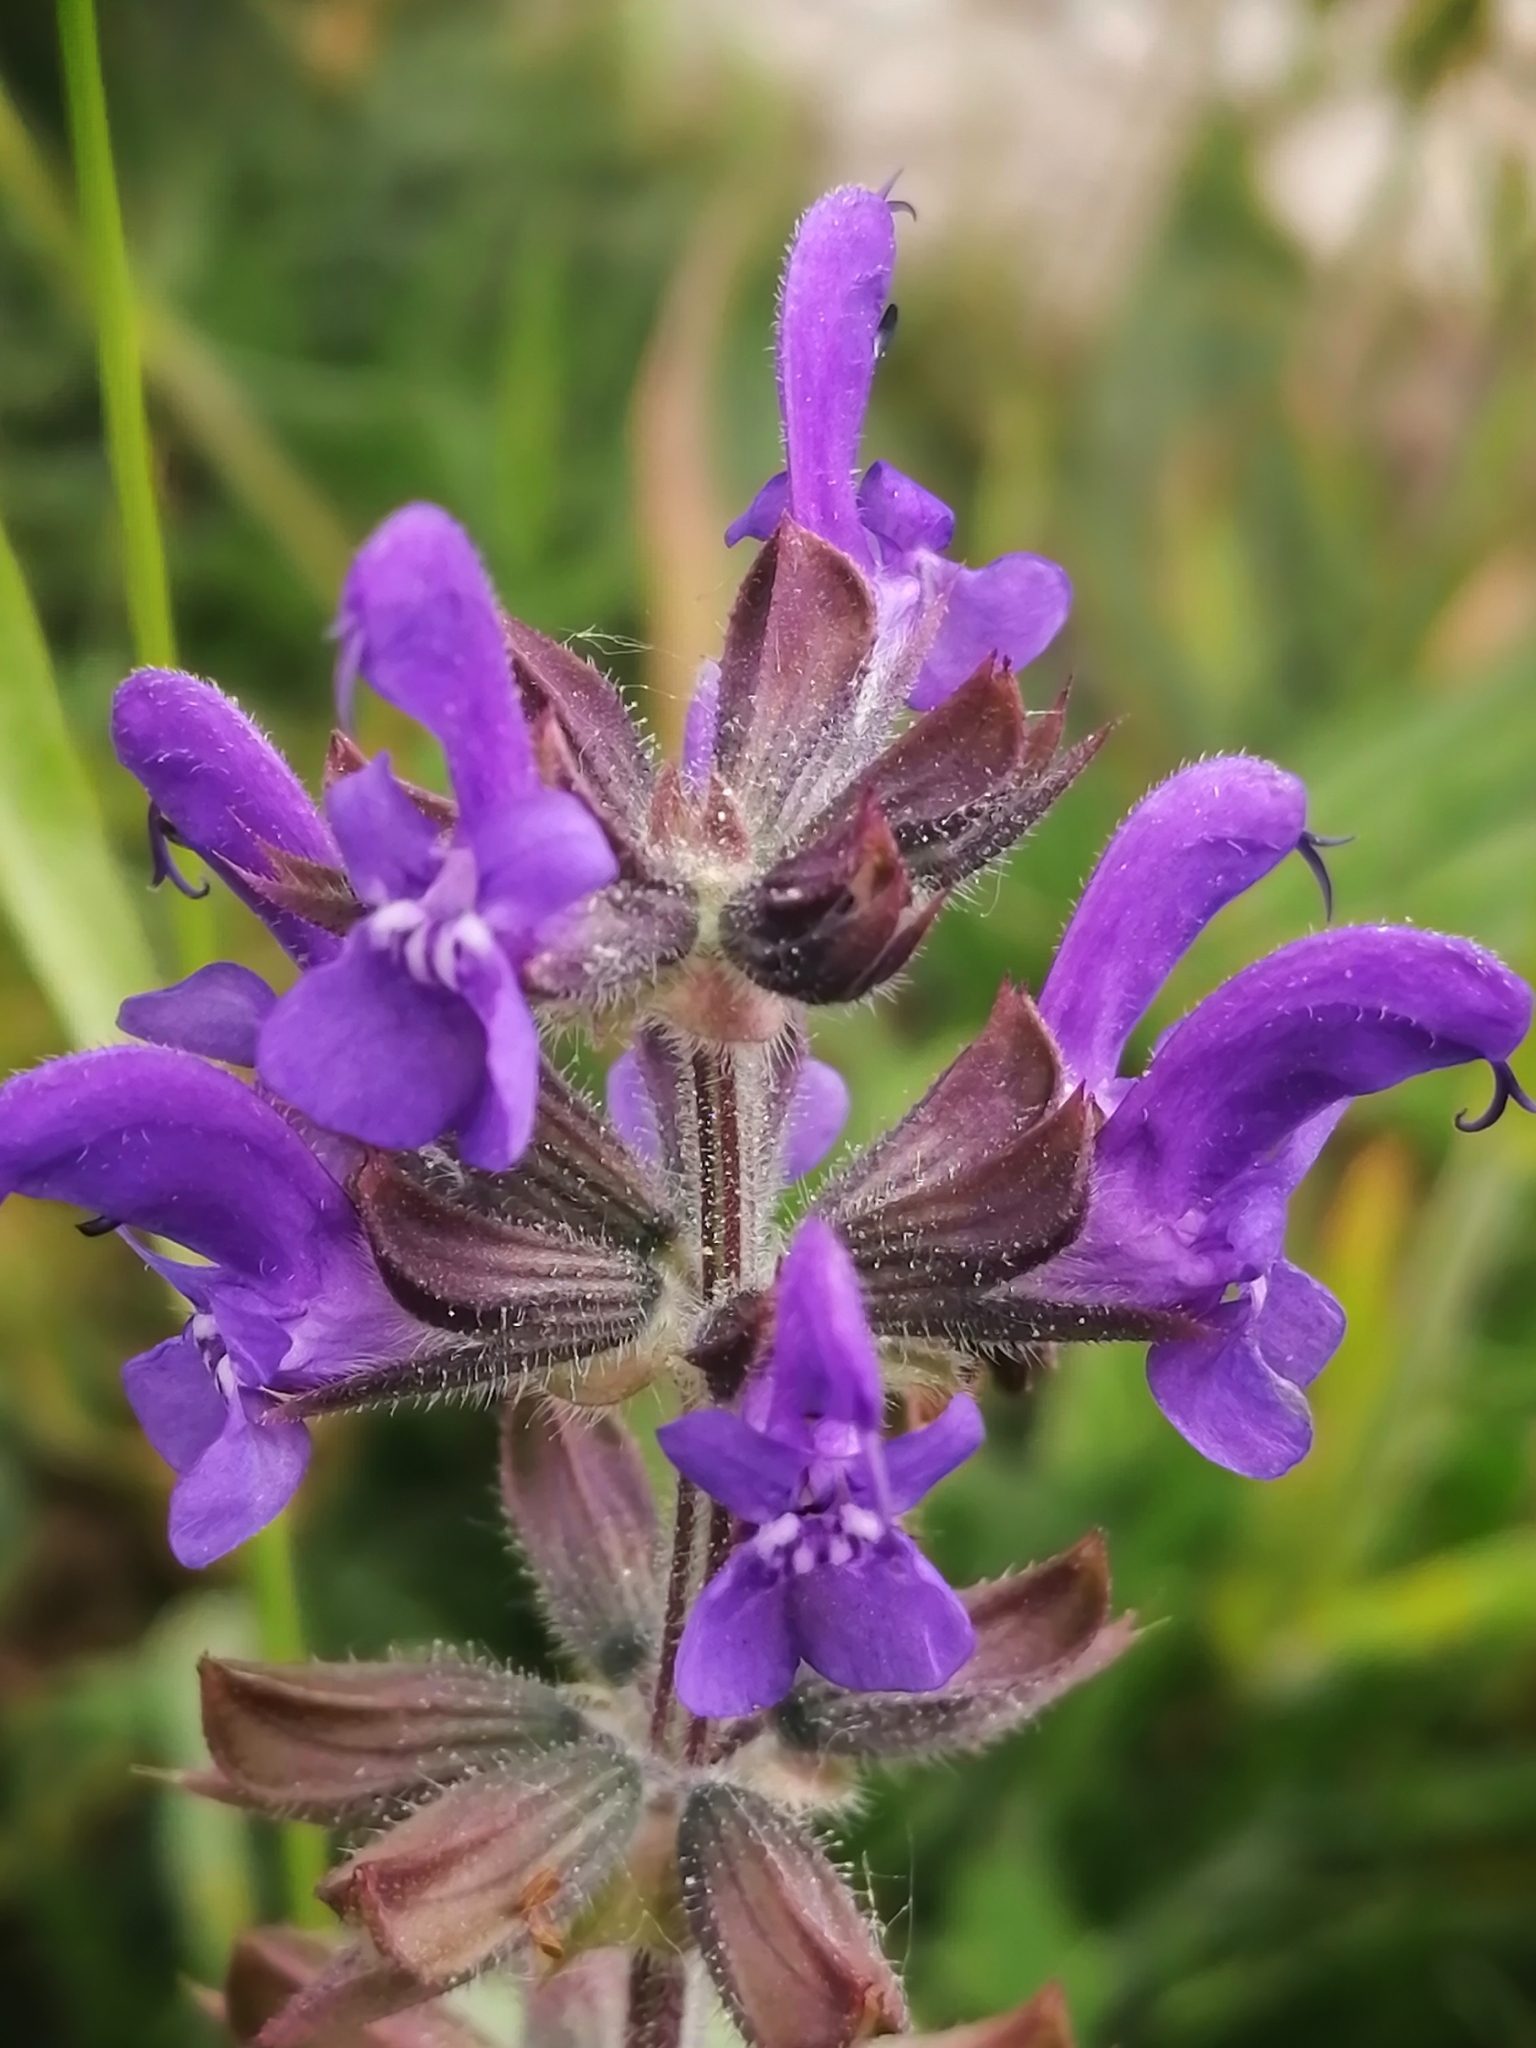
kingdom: Plantae
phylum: Tracheophyta
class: Magnoliopsida
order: Lamiales
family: Lamiaceae
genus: Salvia
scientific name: Salvia pratensis
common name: Meadow sage
